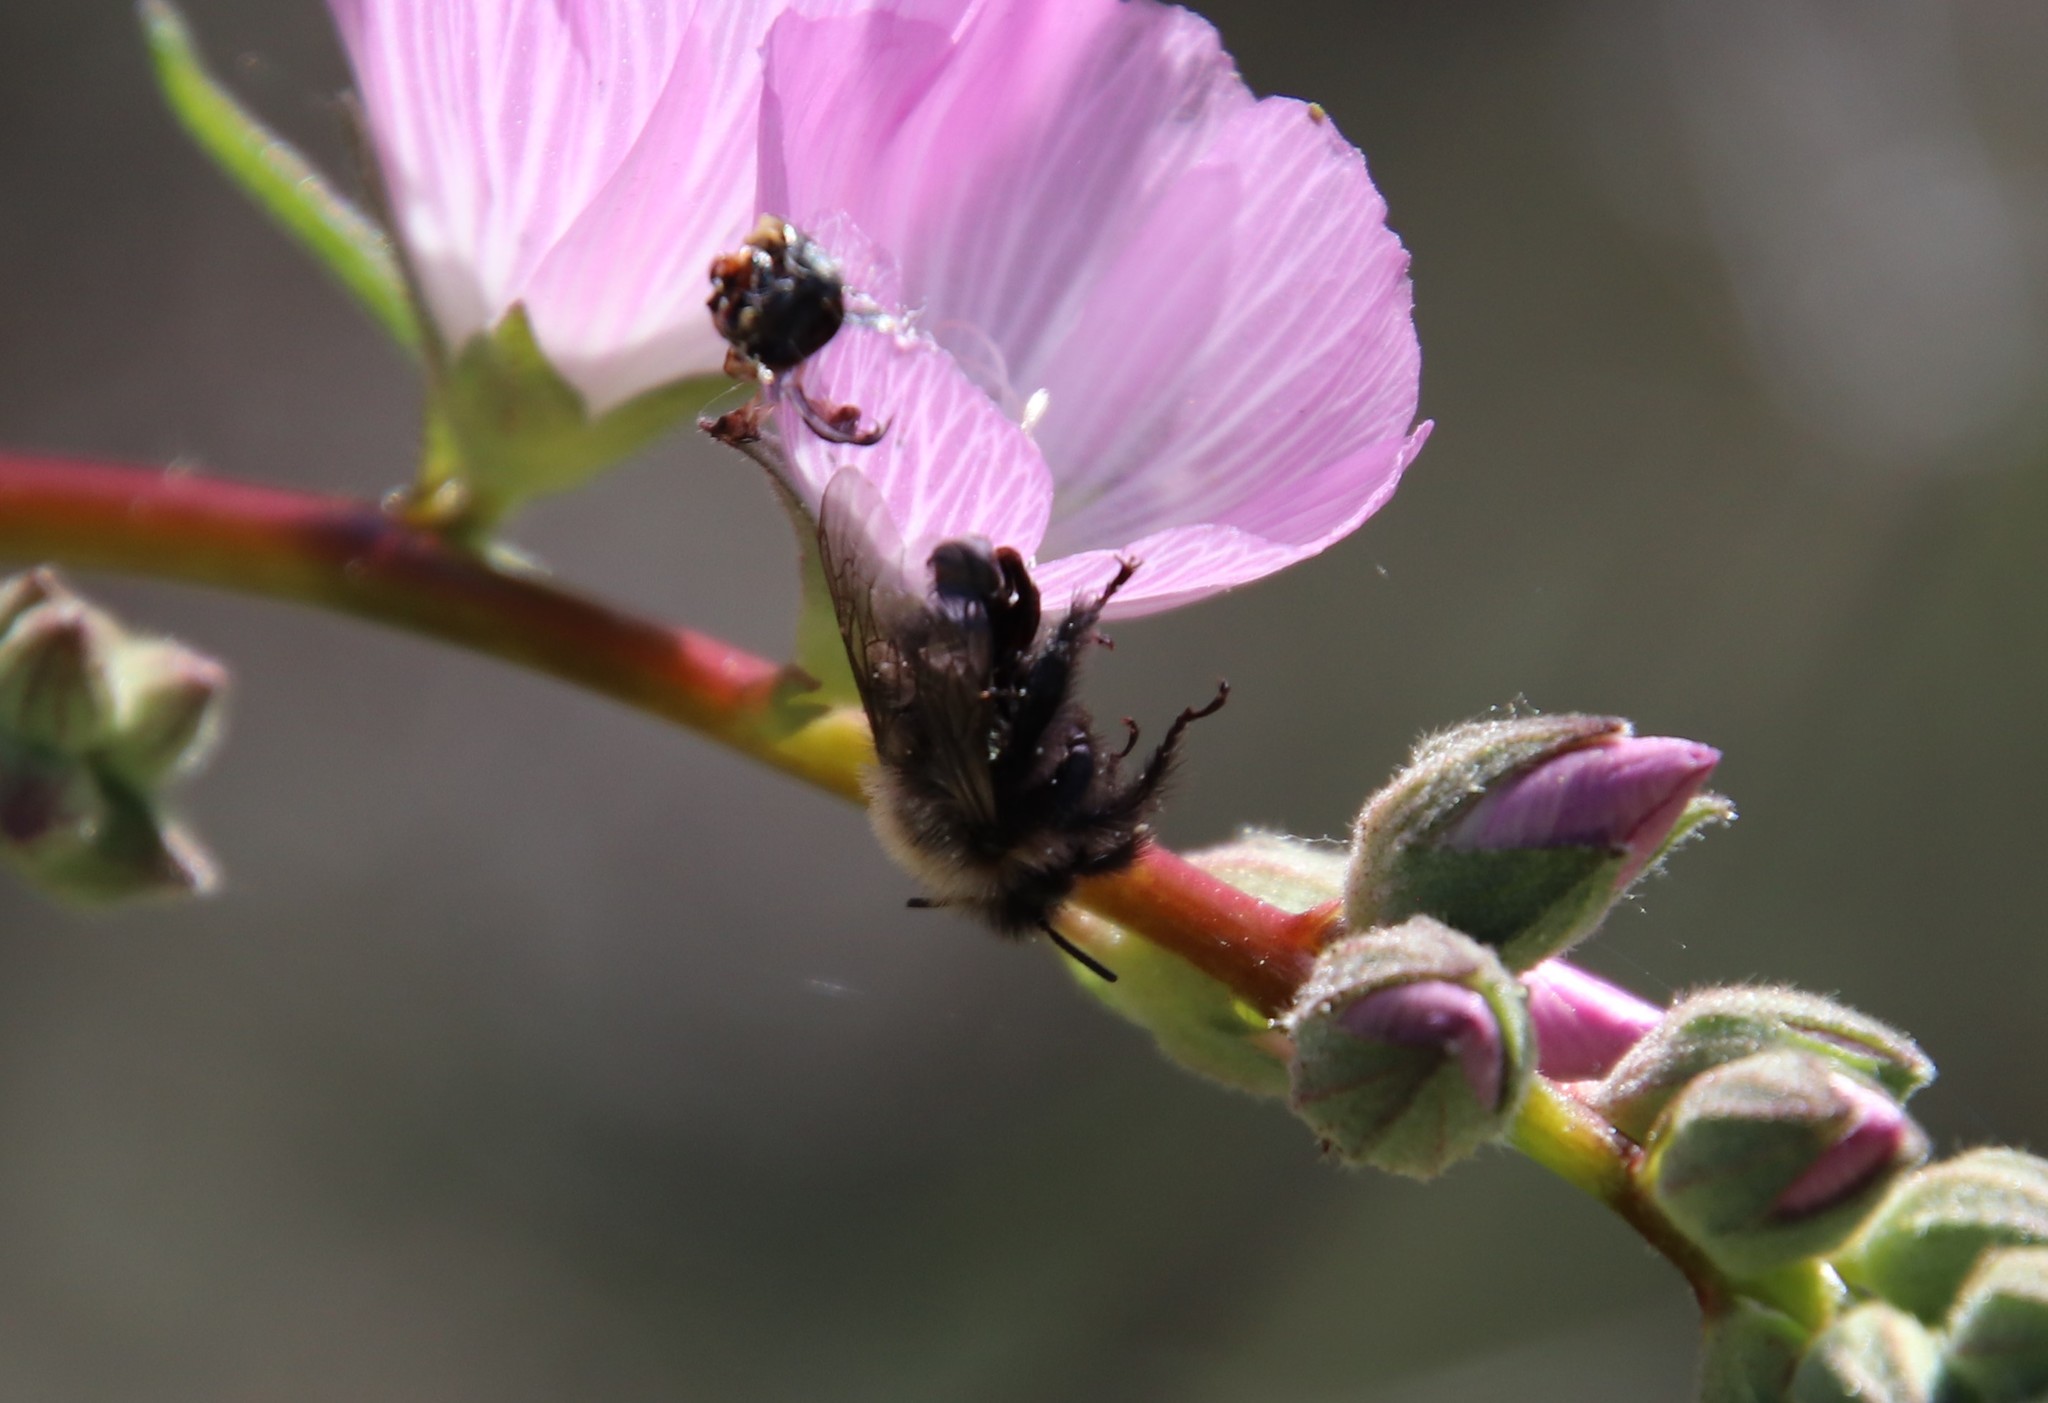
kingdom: Animalia
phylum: Arthropoda
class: Insecta
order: Hymenoptera
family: Apidae
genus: Diadasia
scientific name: Diadasia nigrifrons
